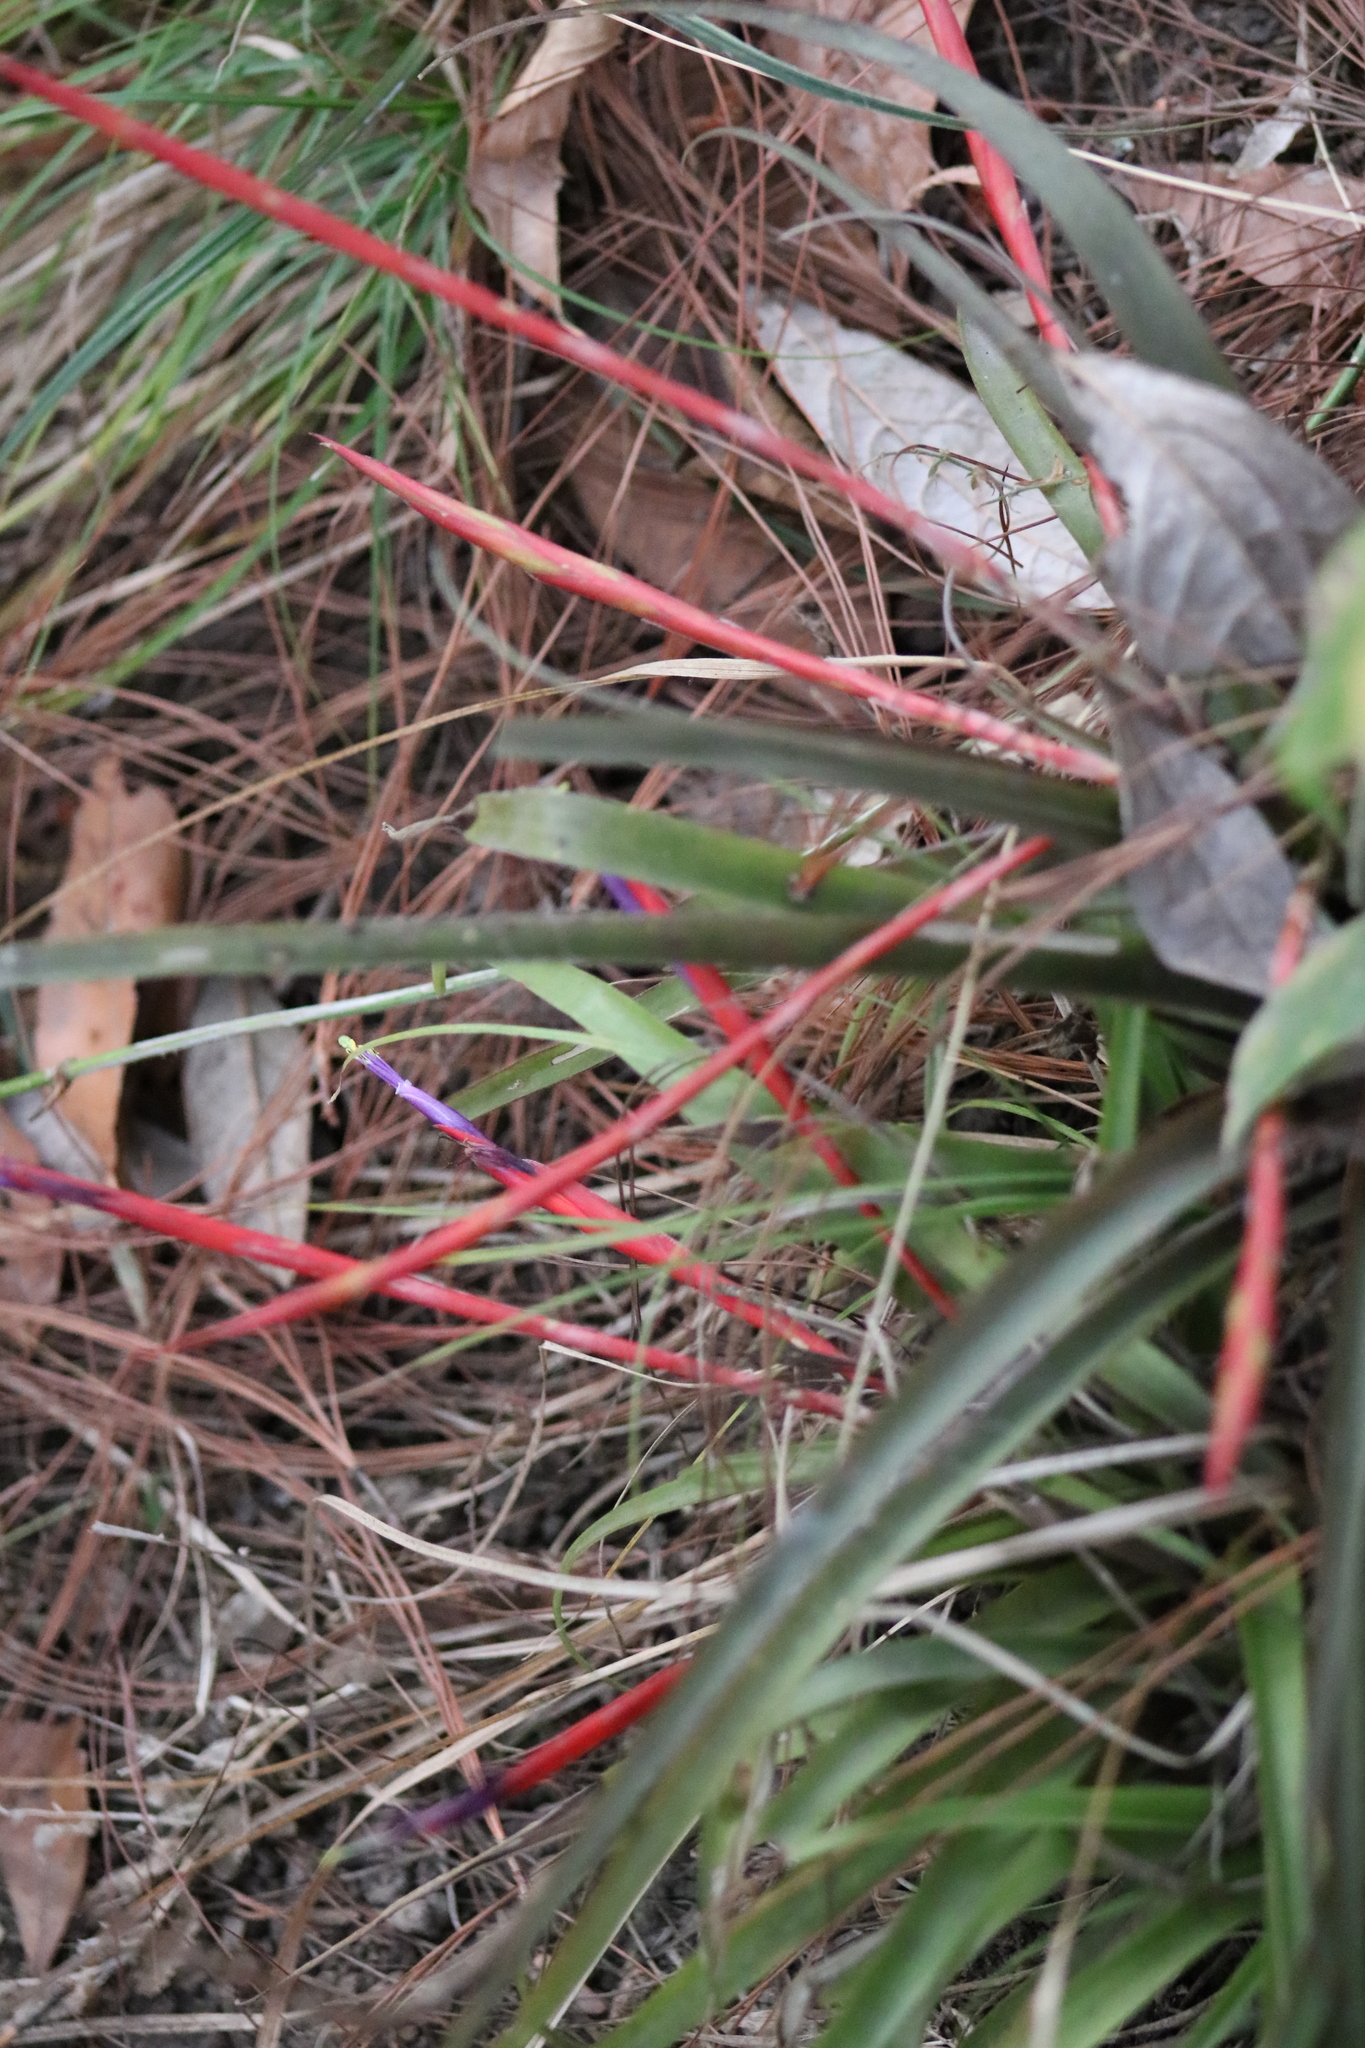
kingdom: Plantae
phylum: Tracheophyta
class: Liliopsida
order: Poales
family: Bromeliaceae
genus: Tillandsia
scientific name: Tillandsia flabellata
